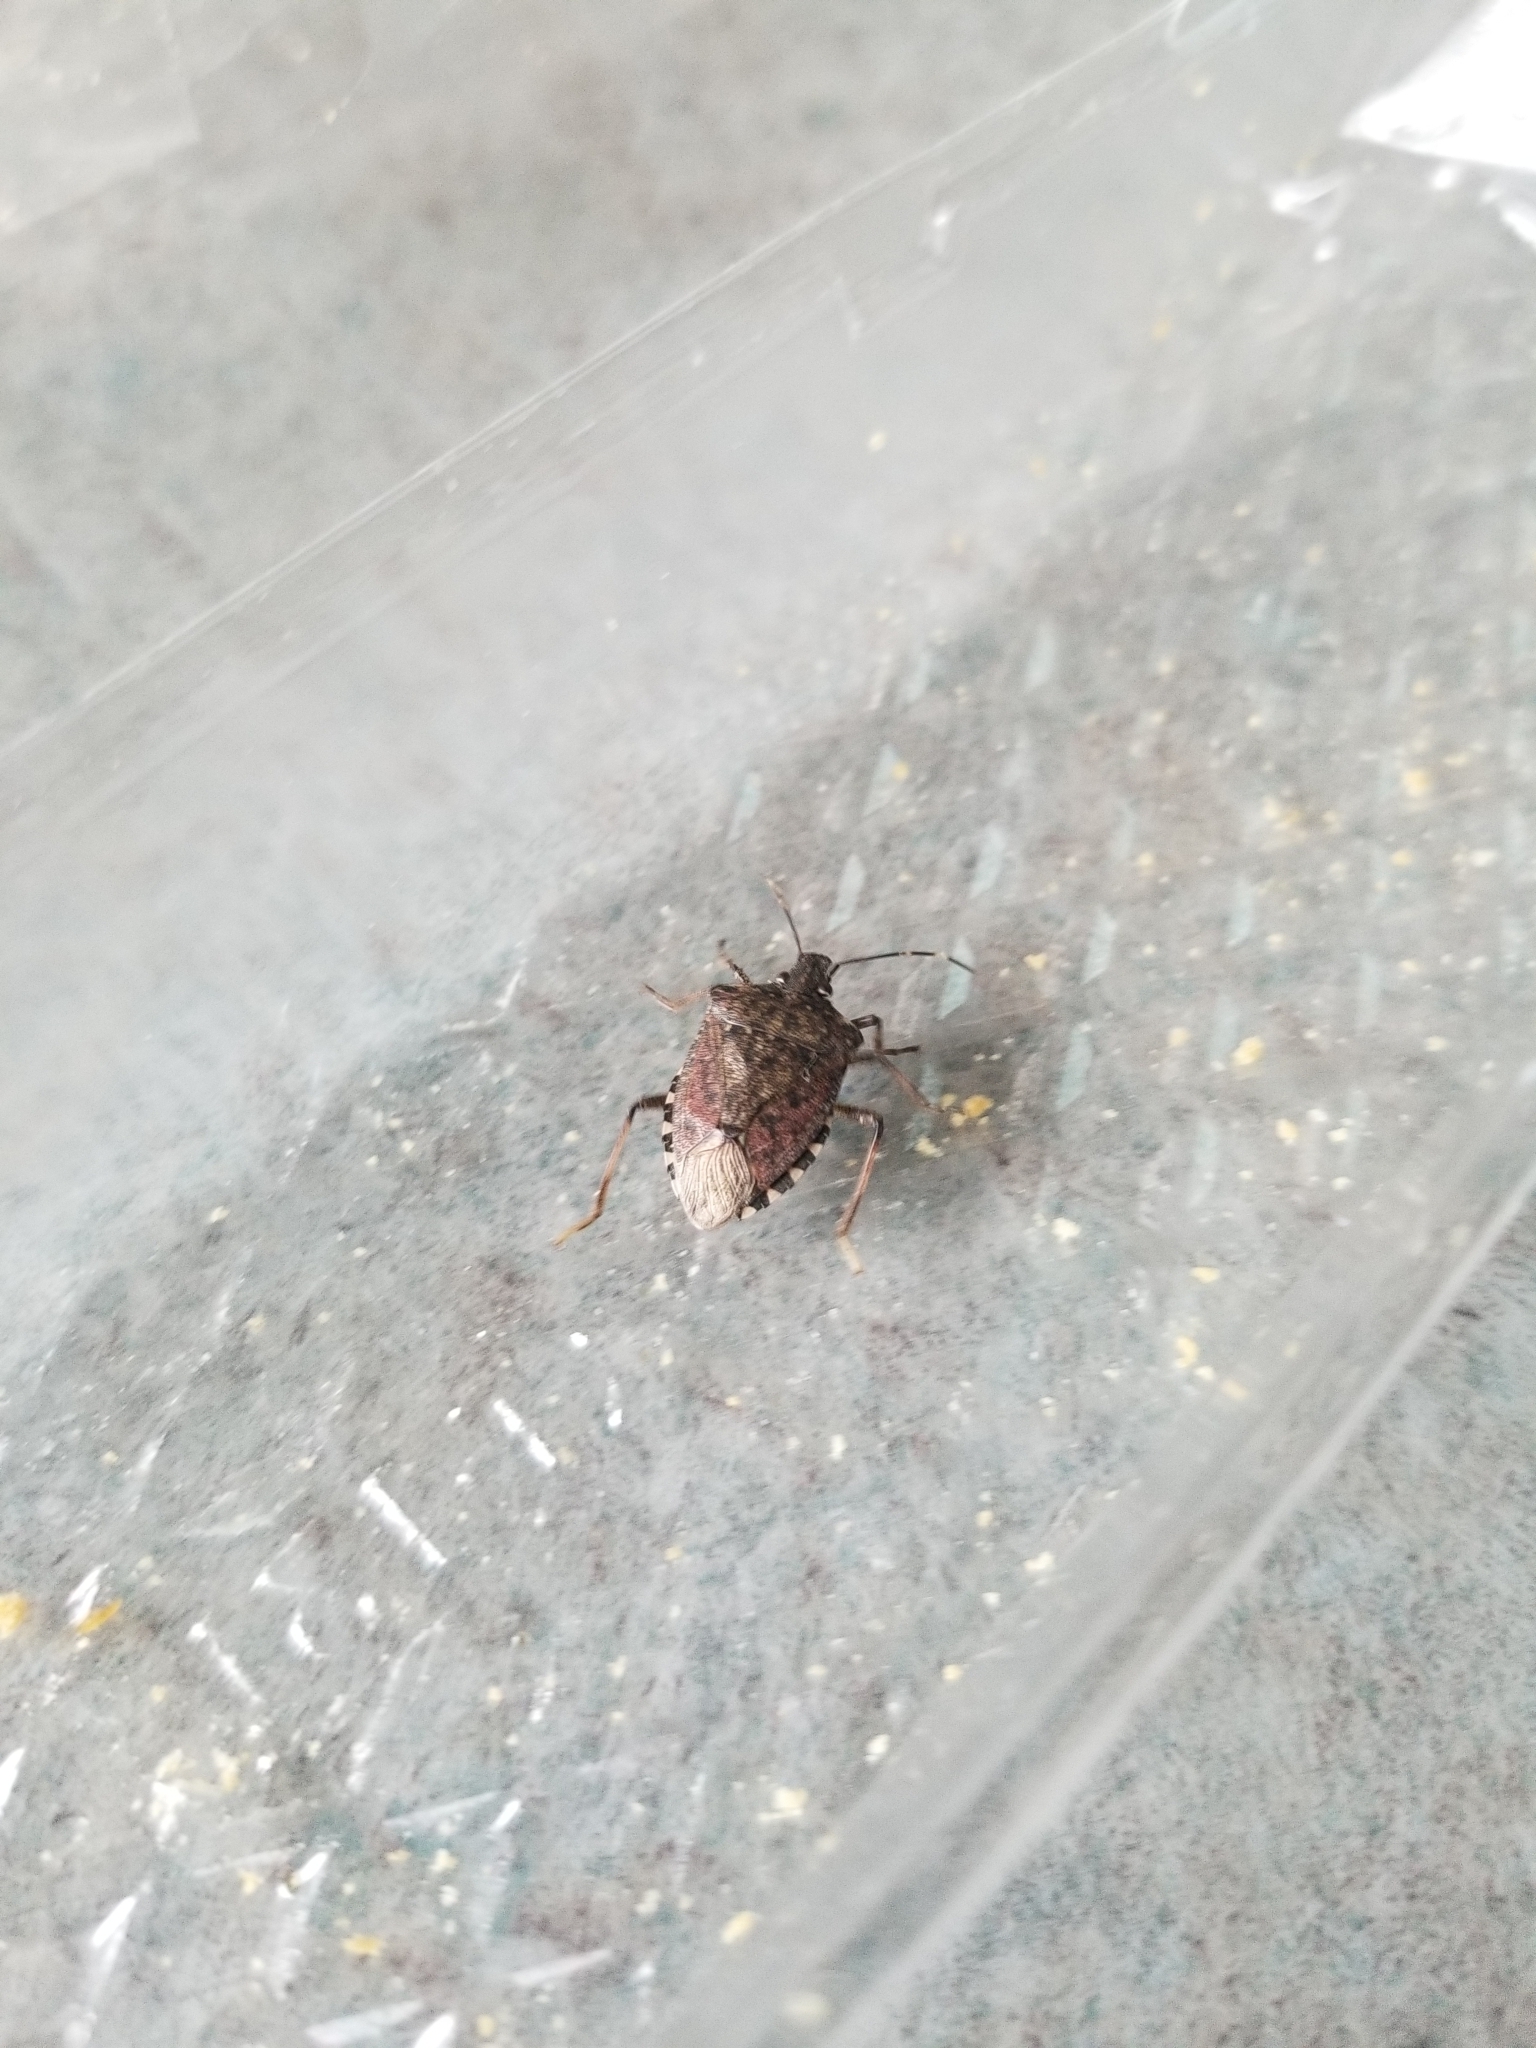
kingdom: Animalia
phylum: Arthropoda
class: Insecta
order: Hemiptera
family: Pentatomidae
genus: Halyomorpha
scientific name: Halyomorpha halys
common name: Brown marmorated stink bug
